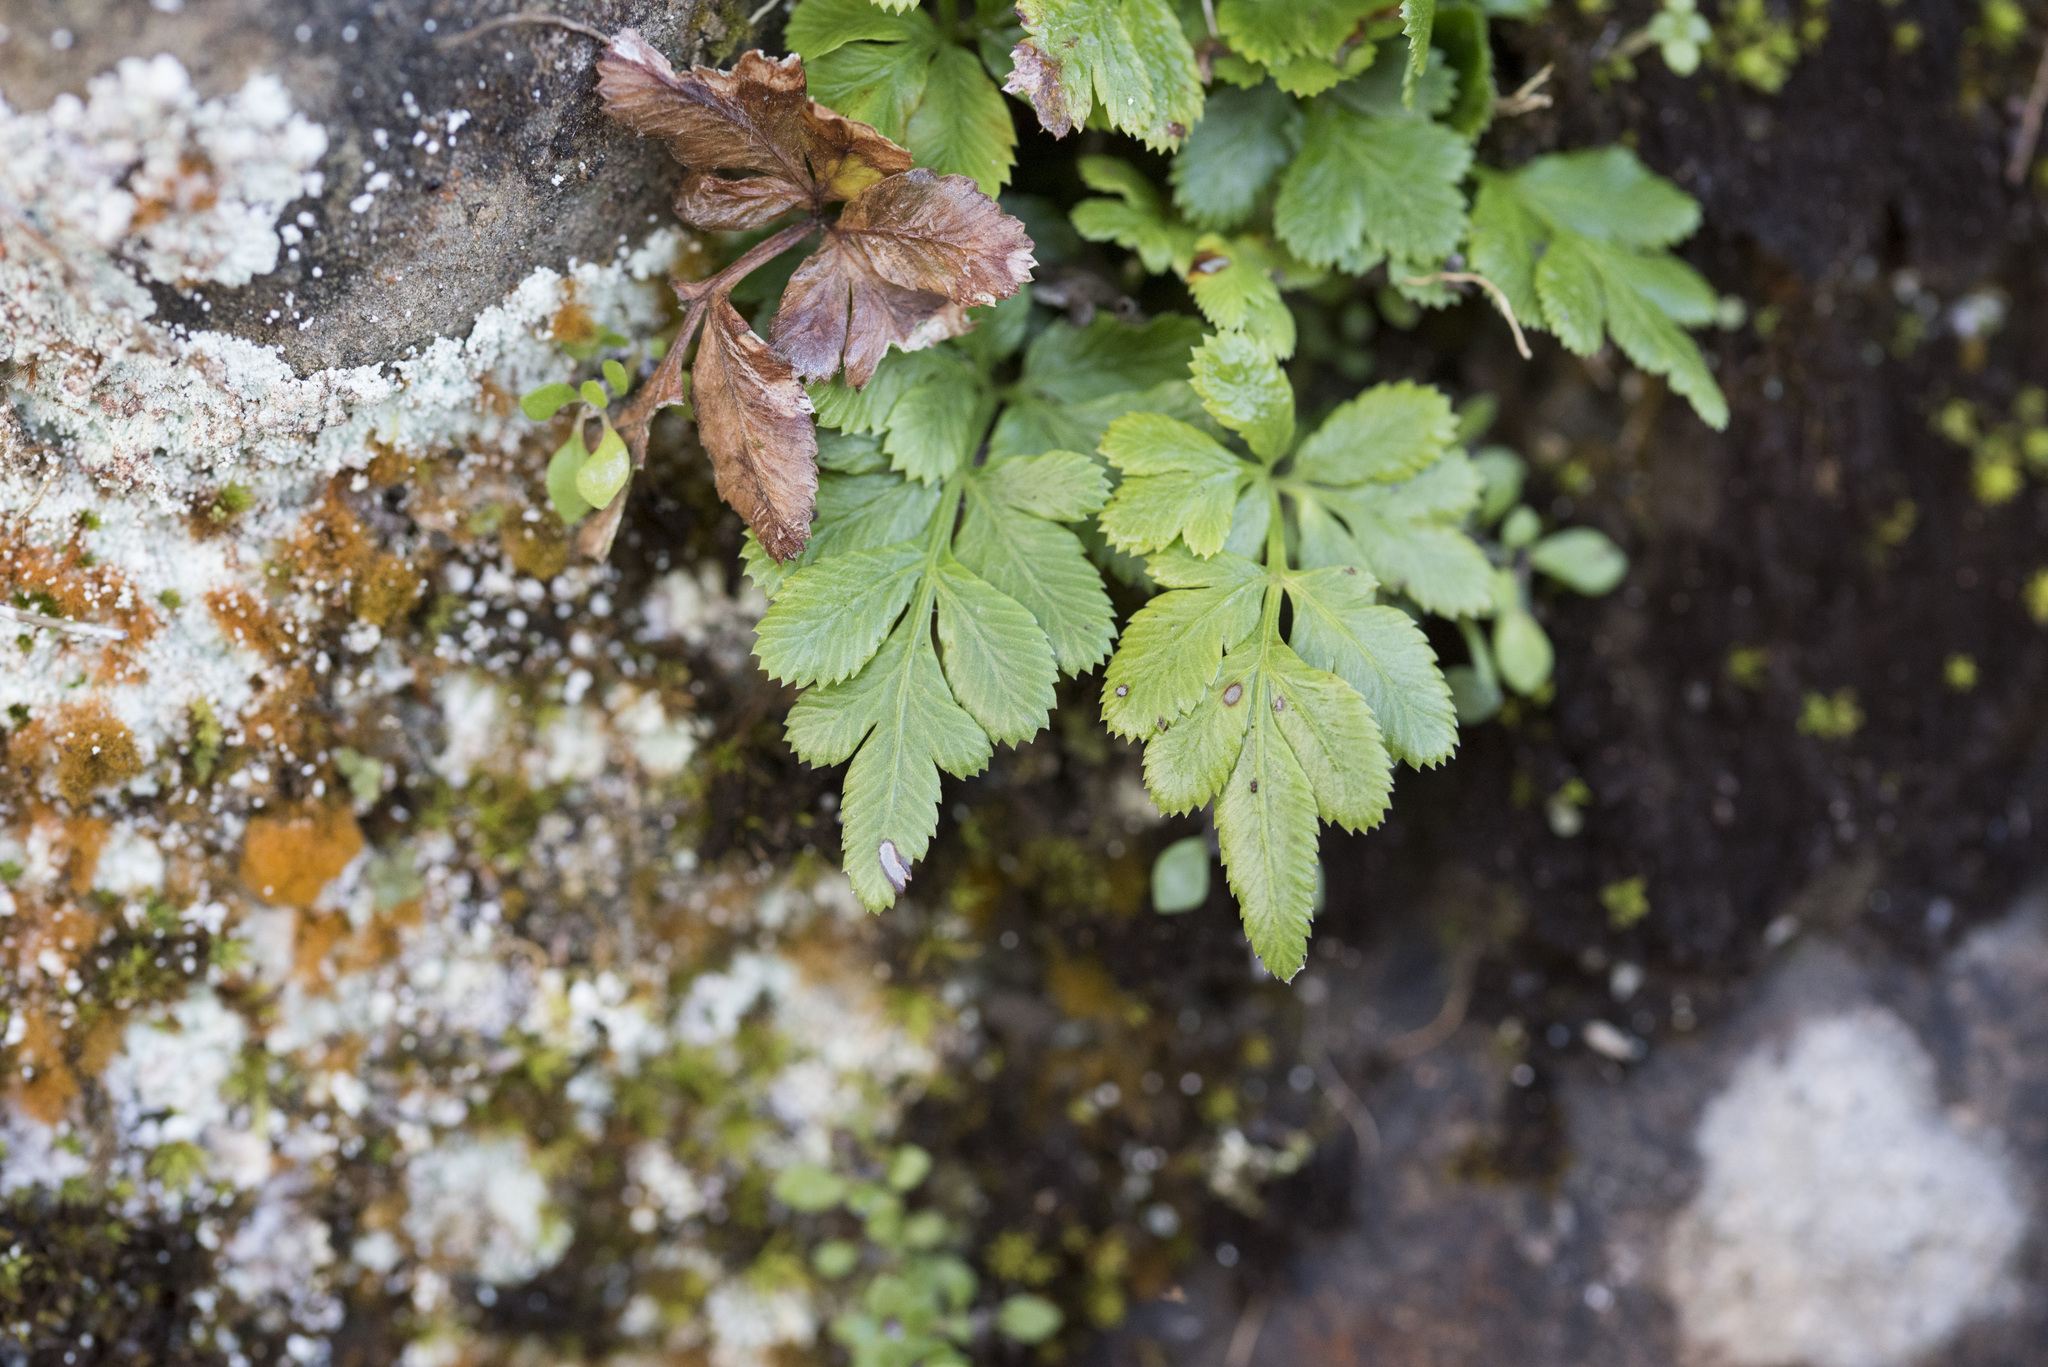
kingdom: Plantae
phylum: Tracheophyta
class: Polypodiopsida
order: Polypodiales
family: Pteridaceae
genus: Pteris
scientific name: Pteris ensiformis
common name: Sword brake
